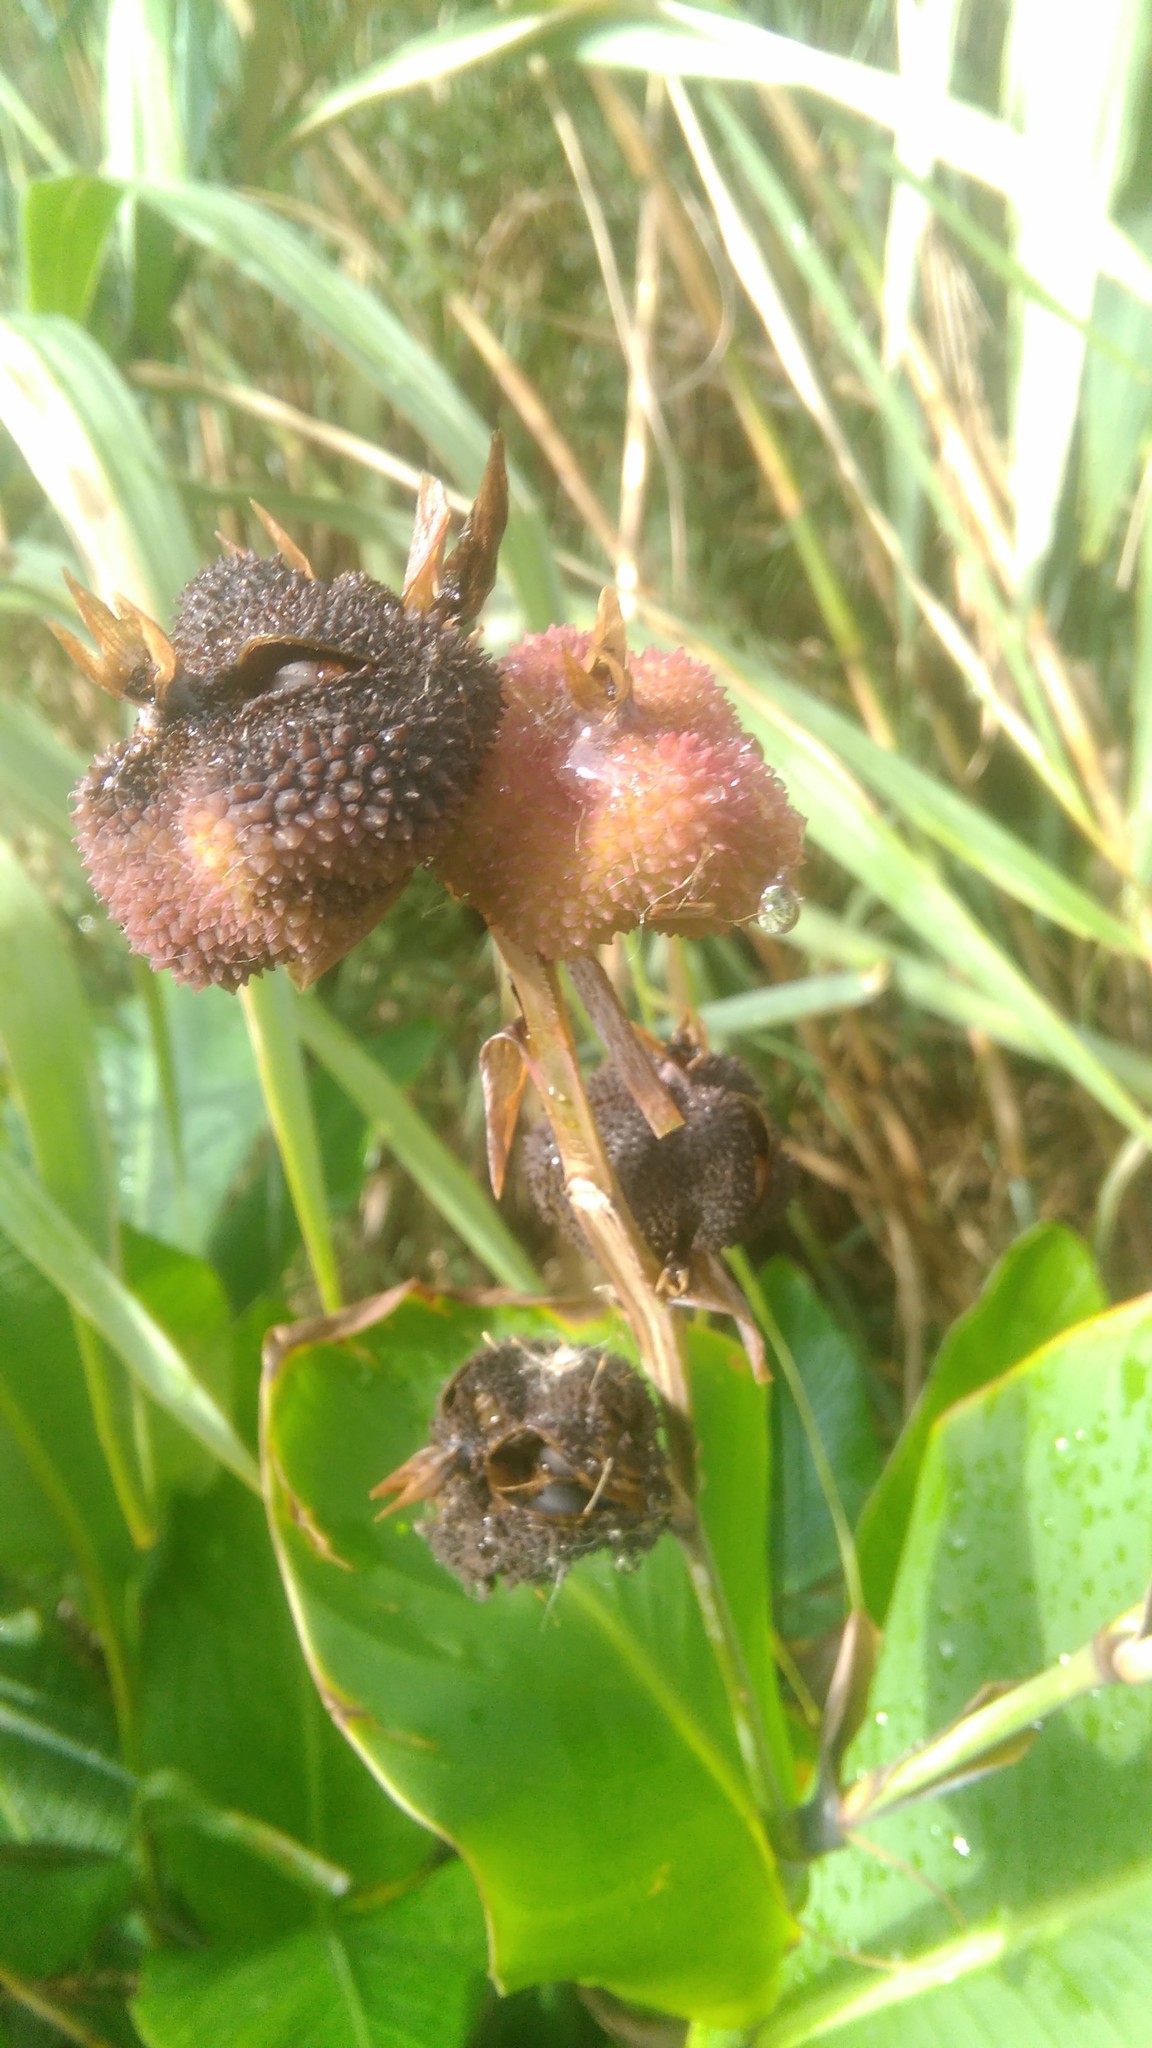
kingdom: Plantae
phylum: Tracheophyta
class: Liliopsida
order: Zingiberales
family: Cannaceae
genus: Canna
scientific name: Canna indica
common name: Indian shot
